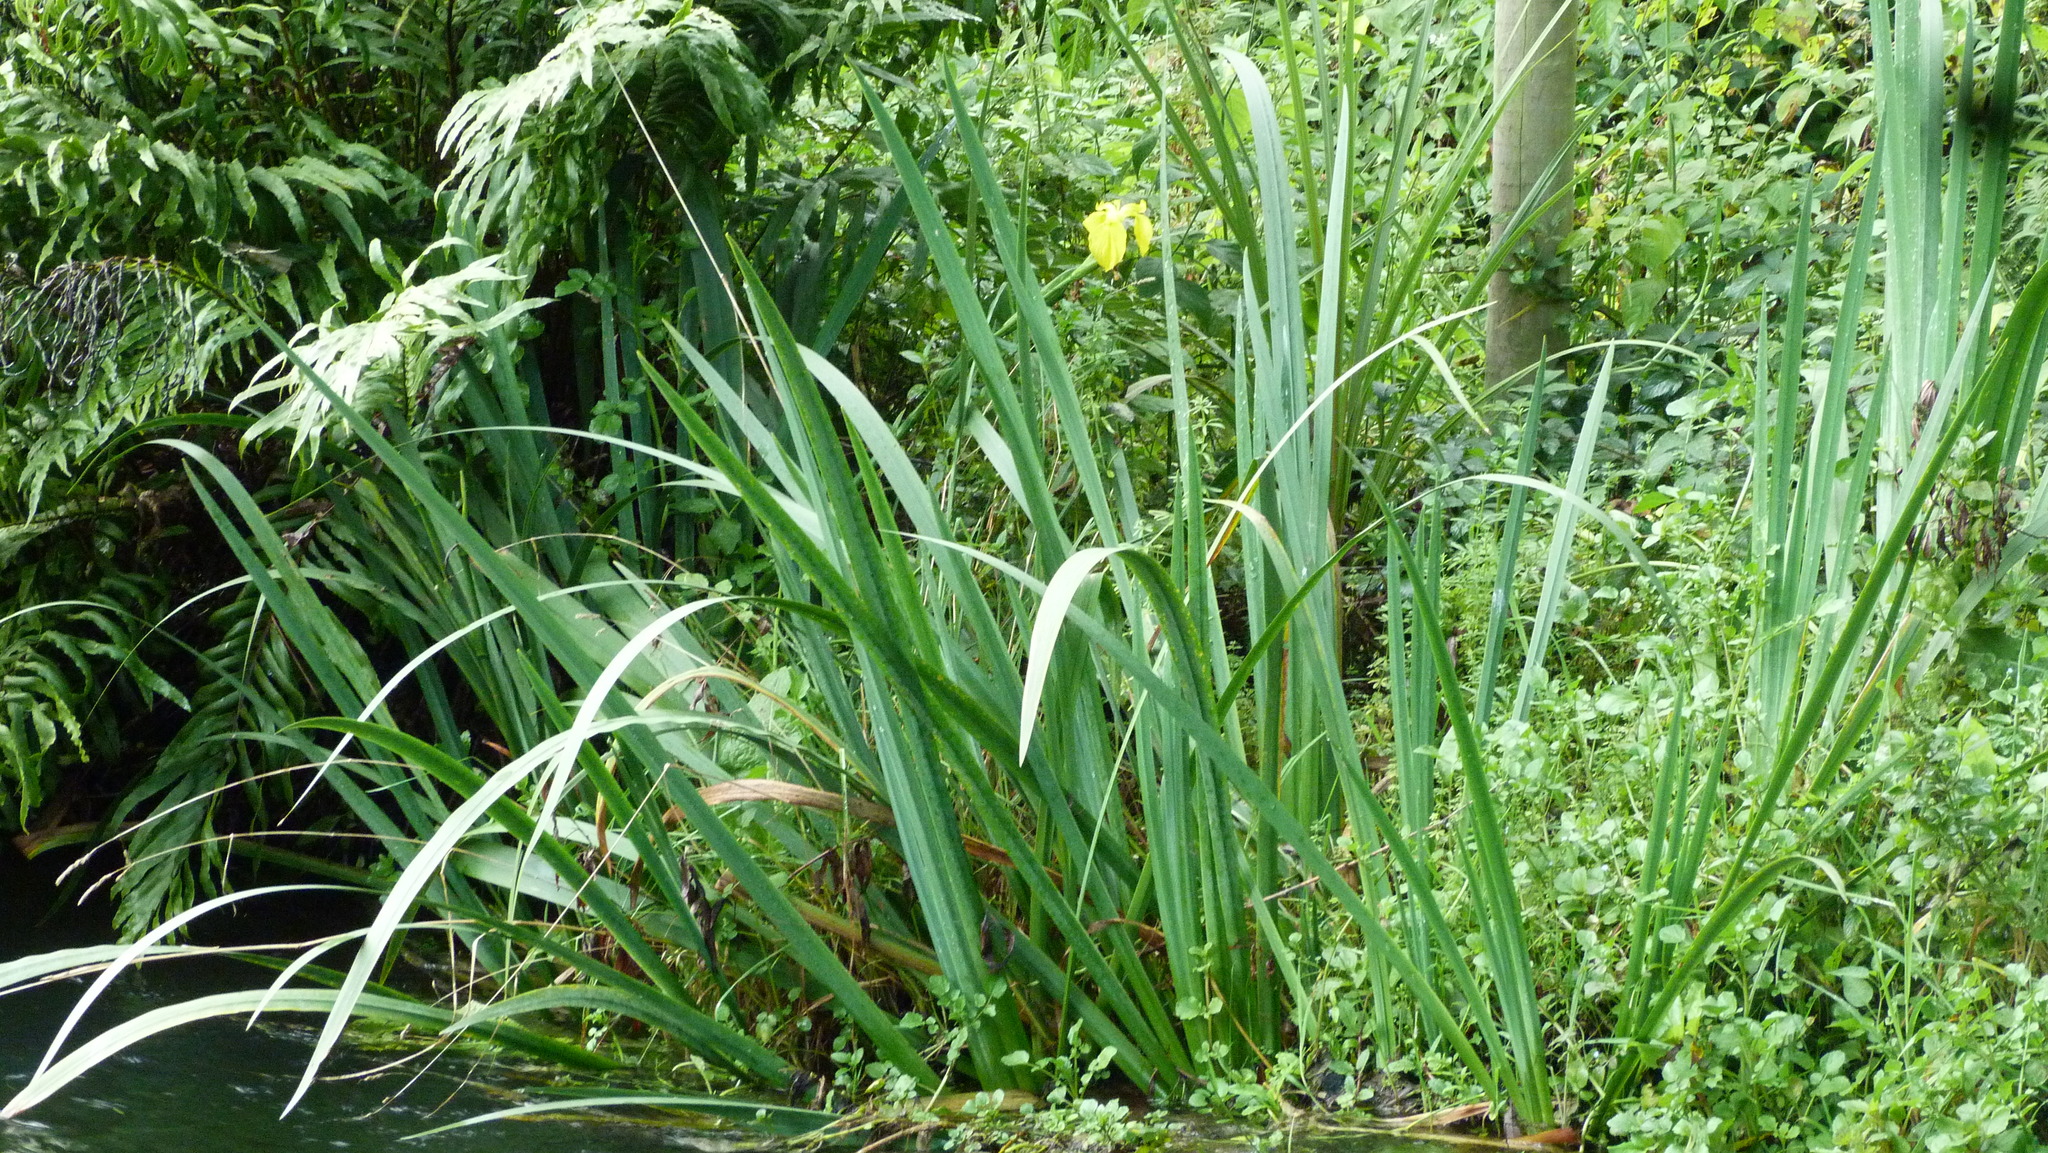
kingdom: Plantae
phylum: Tracheophyta
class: Liliopsida
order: Asparagales
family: Iridaceae
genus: Iris
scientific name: Iris pseudacorus
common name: Yellow flag
